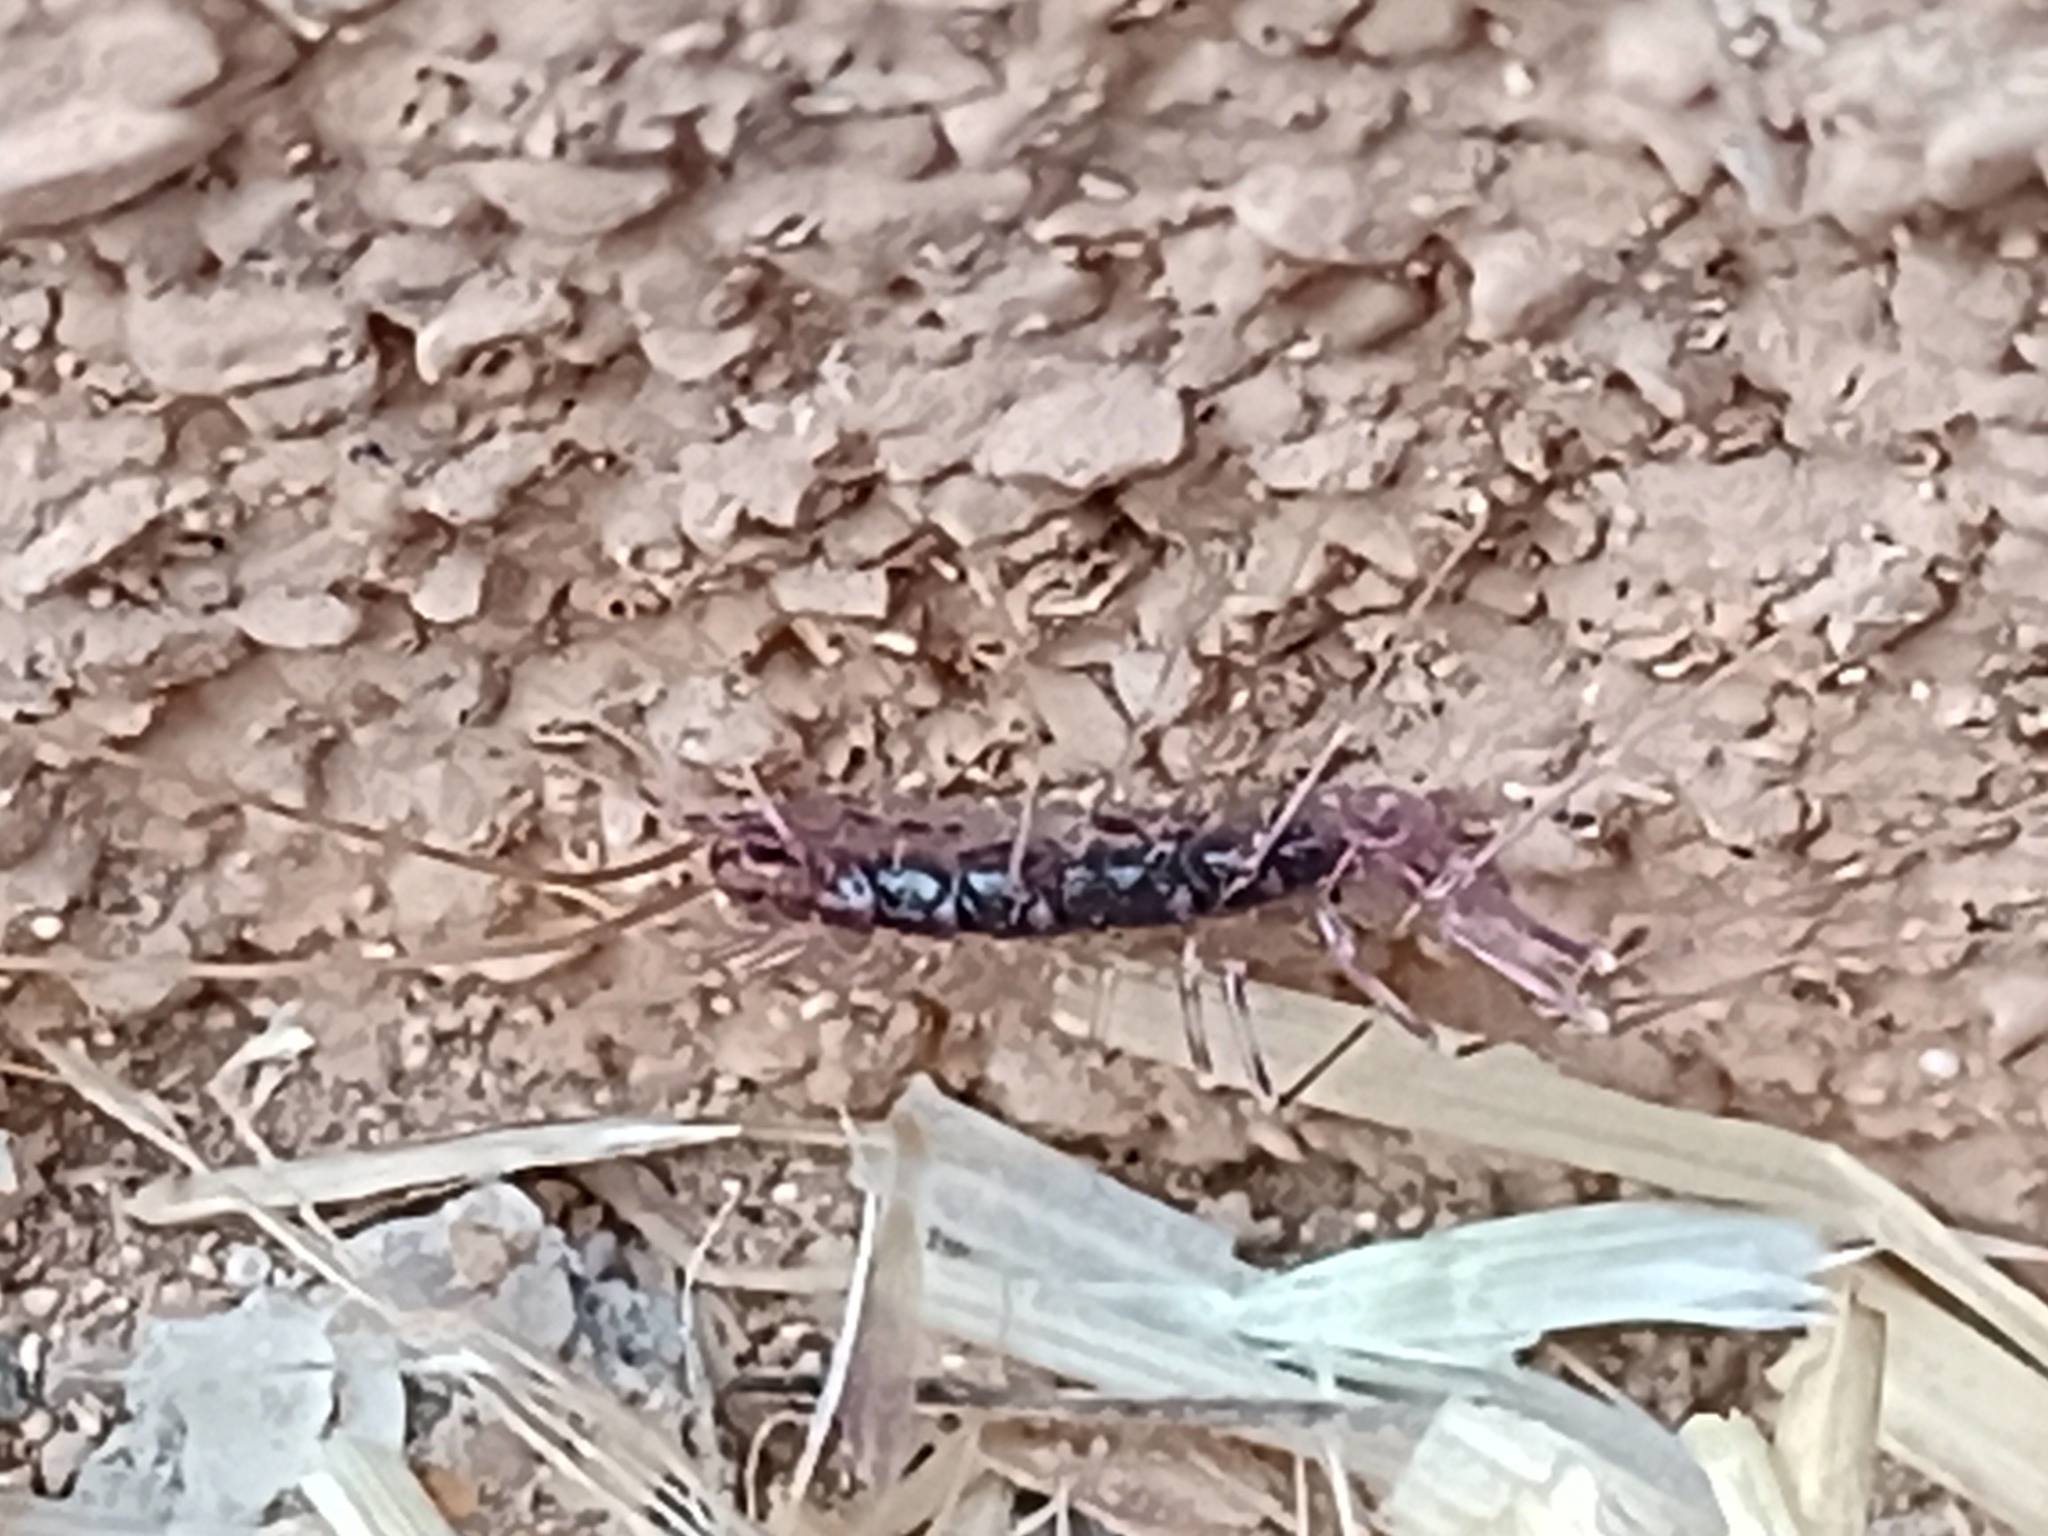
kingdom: Animalia
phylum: Arthropoda
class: Chilopoda
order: Scutigeromorpha
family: Scutigeridae
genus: Scutigera
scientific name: Scutigera coleoptrata
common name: House centipede
